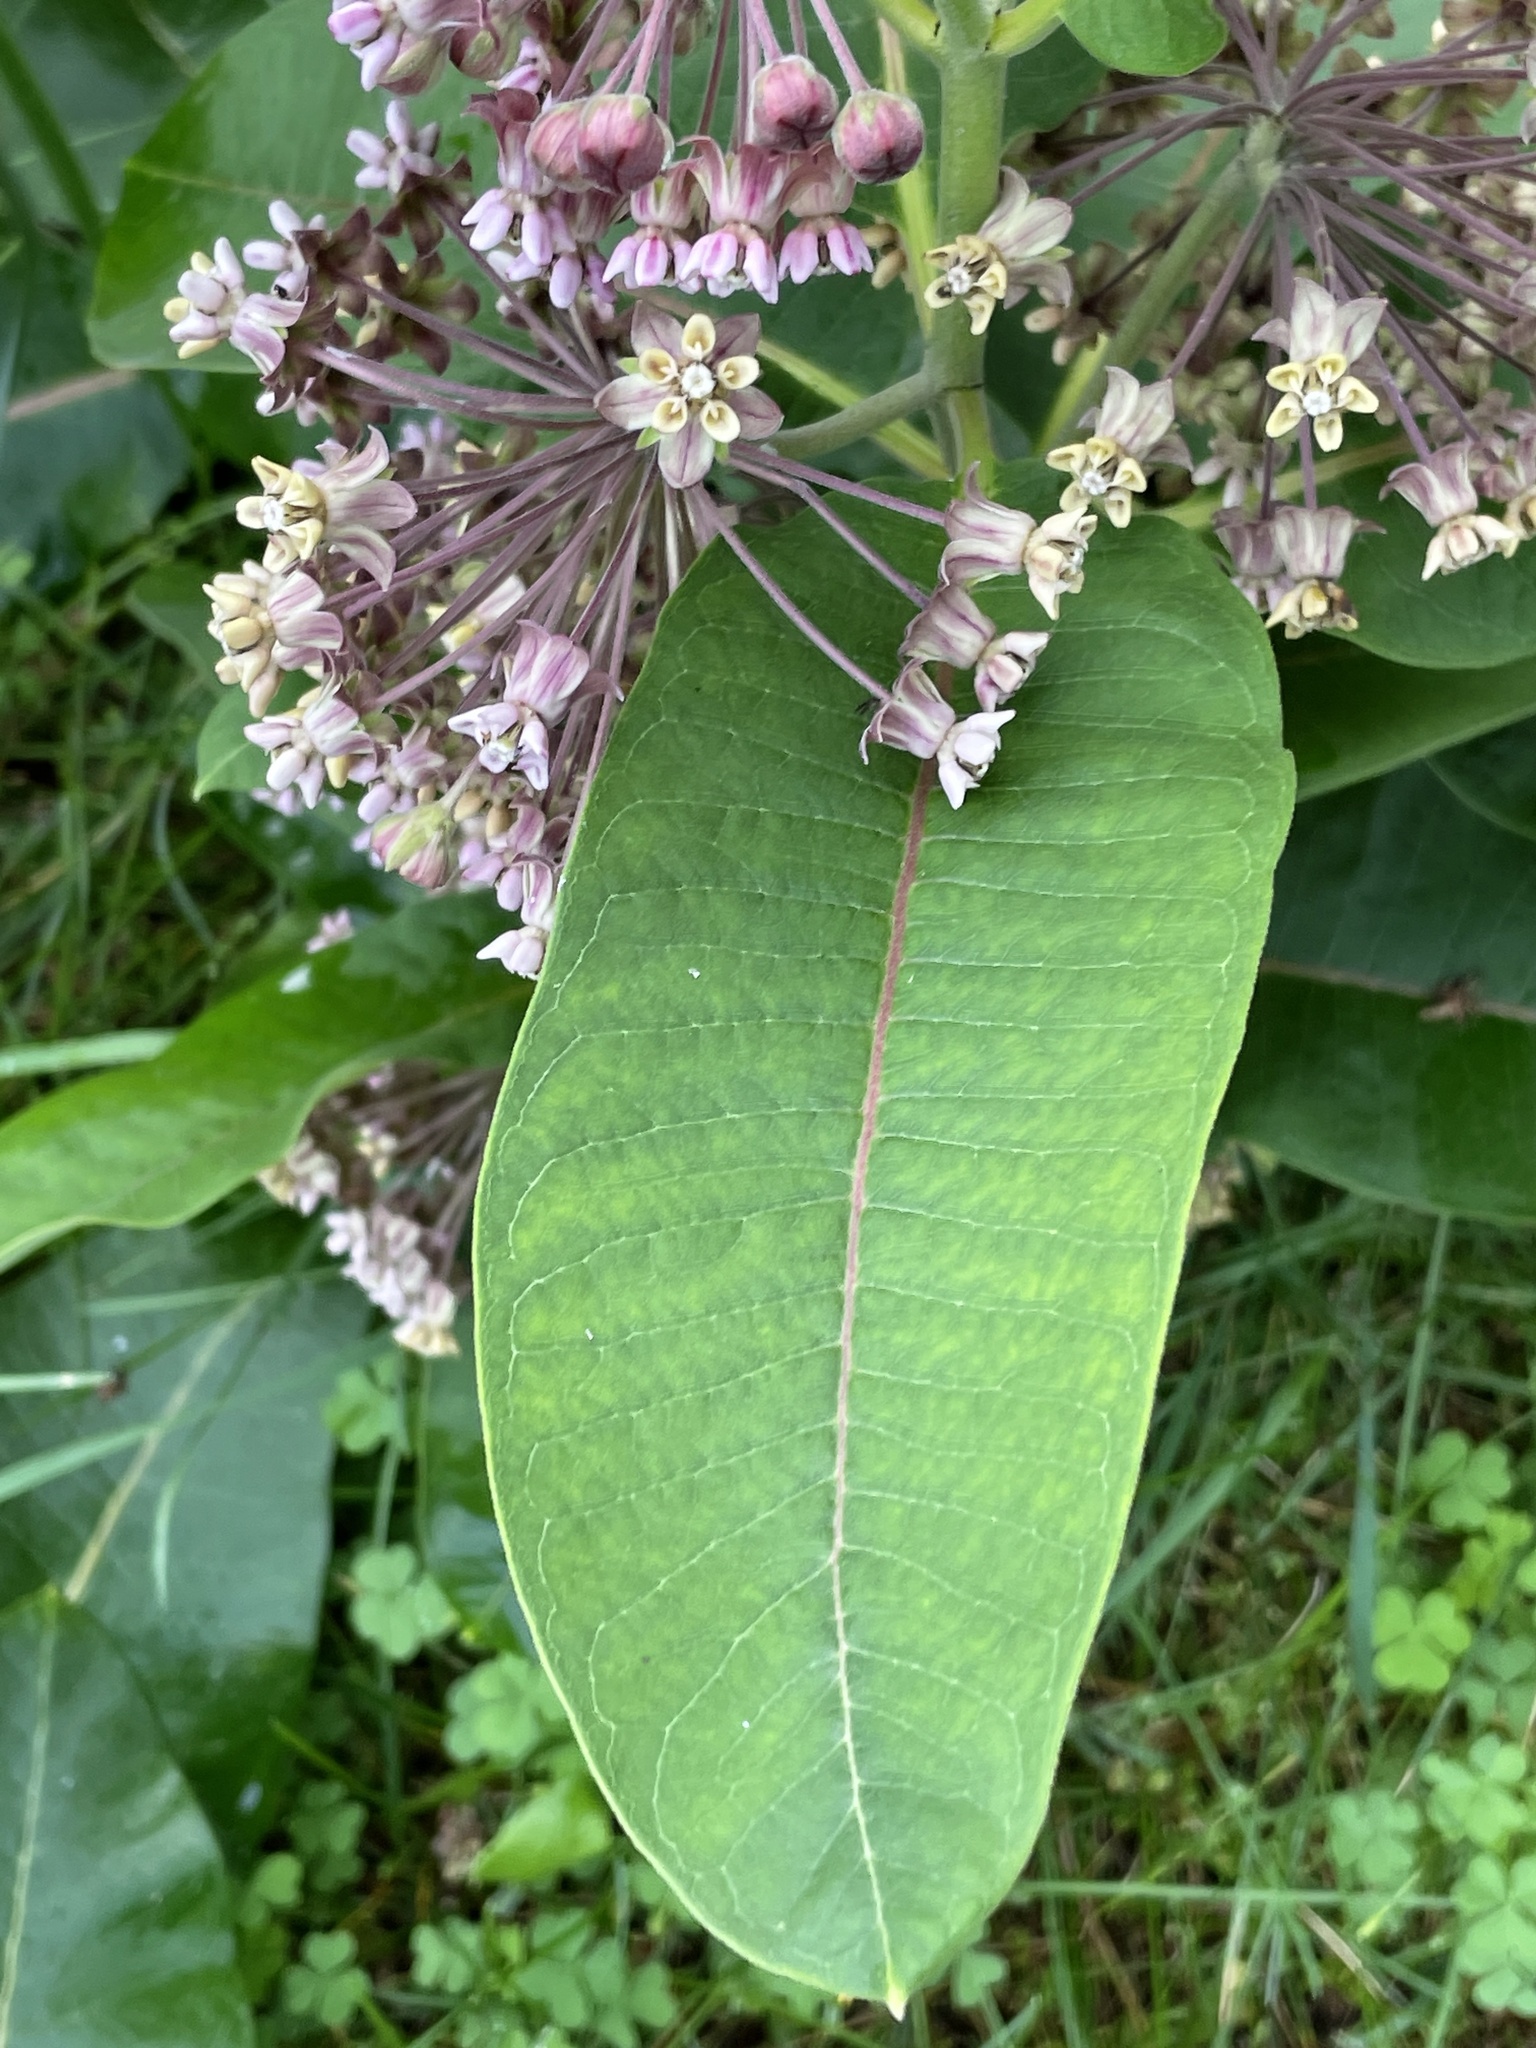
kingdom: Plantae
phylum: Tracheophyta
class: Magnoliopsida
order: Gentianales
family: Apocynaceae
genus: Asclepias
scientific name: Asclepias syriaca
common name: Common milkweed
